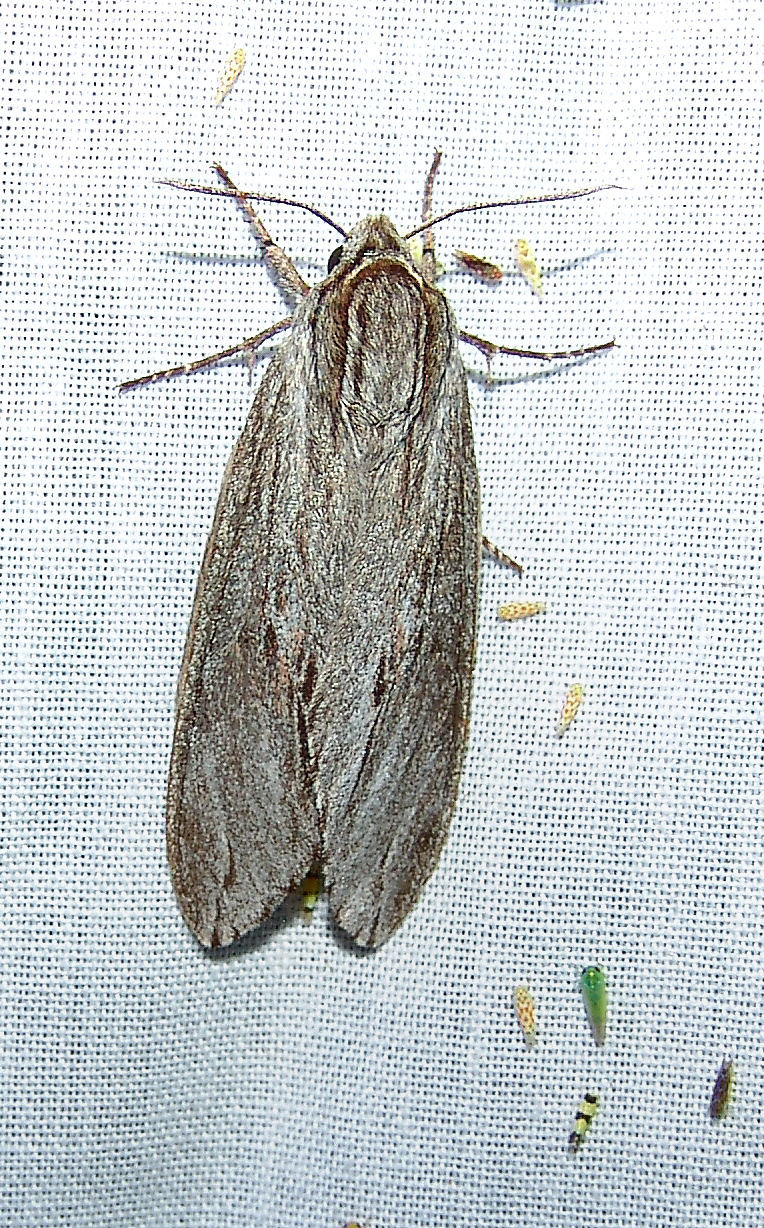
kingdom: Animalia
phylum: Arthropoda
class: Insecta
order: Lepidoptera
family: Sphingidae
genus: Isoparce
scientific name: Isoparce cupressi
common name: Cypress sphinx
